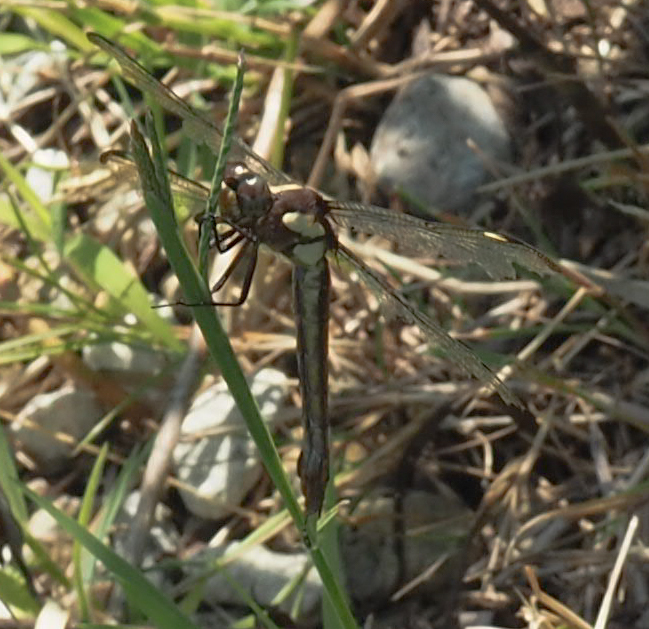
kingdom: Animalia
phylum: Arthropoda
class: Insecta
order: Odonata
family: Libellulidae
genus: Libellula
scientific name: Libellula cyanea
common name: Spangled skimmer
